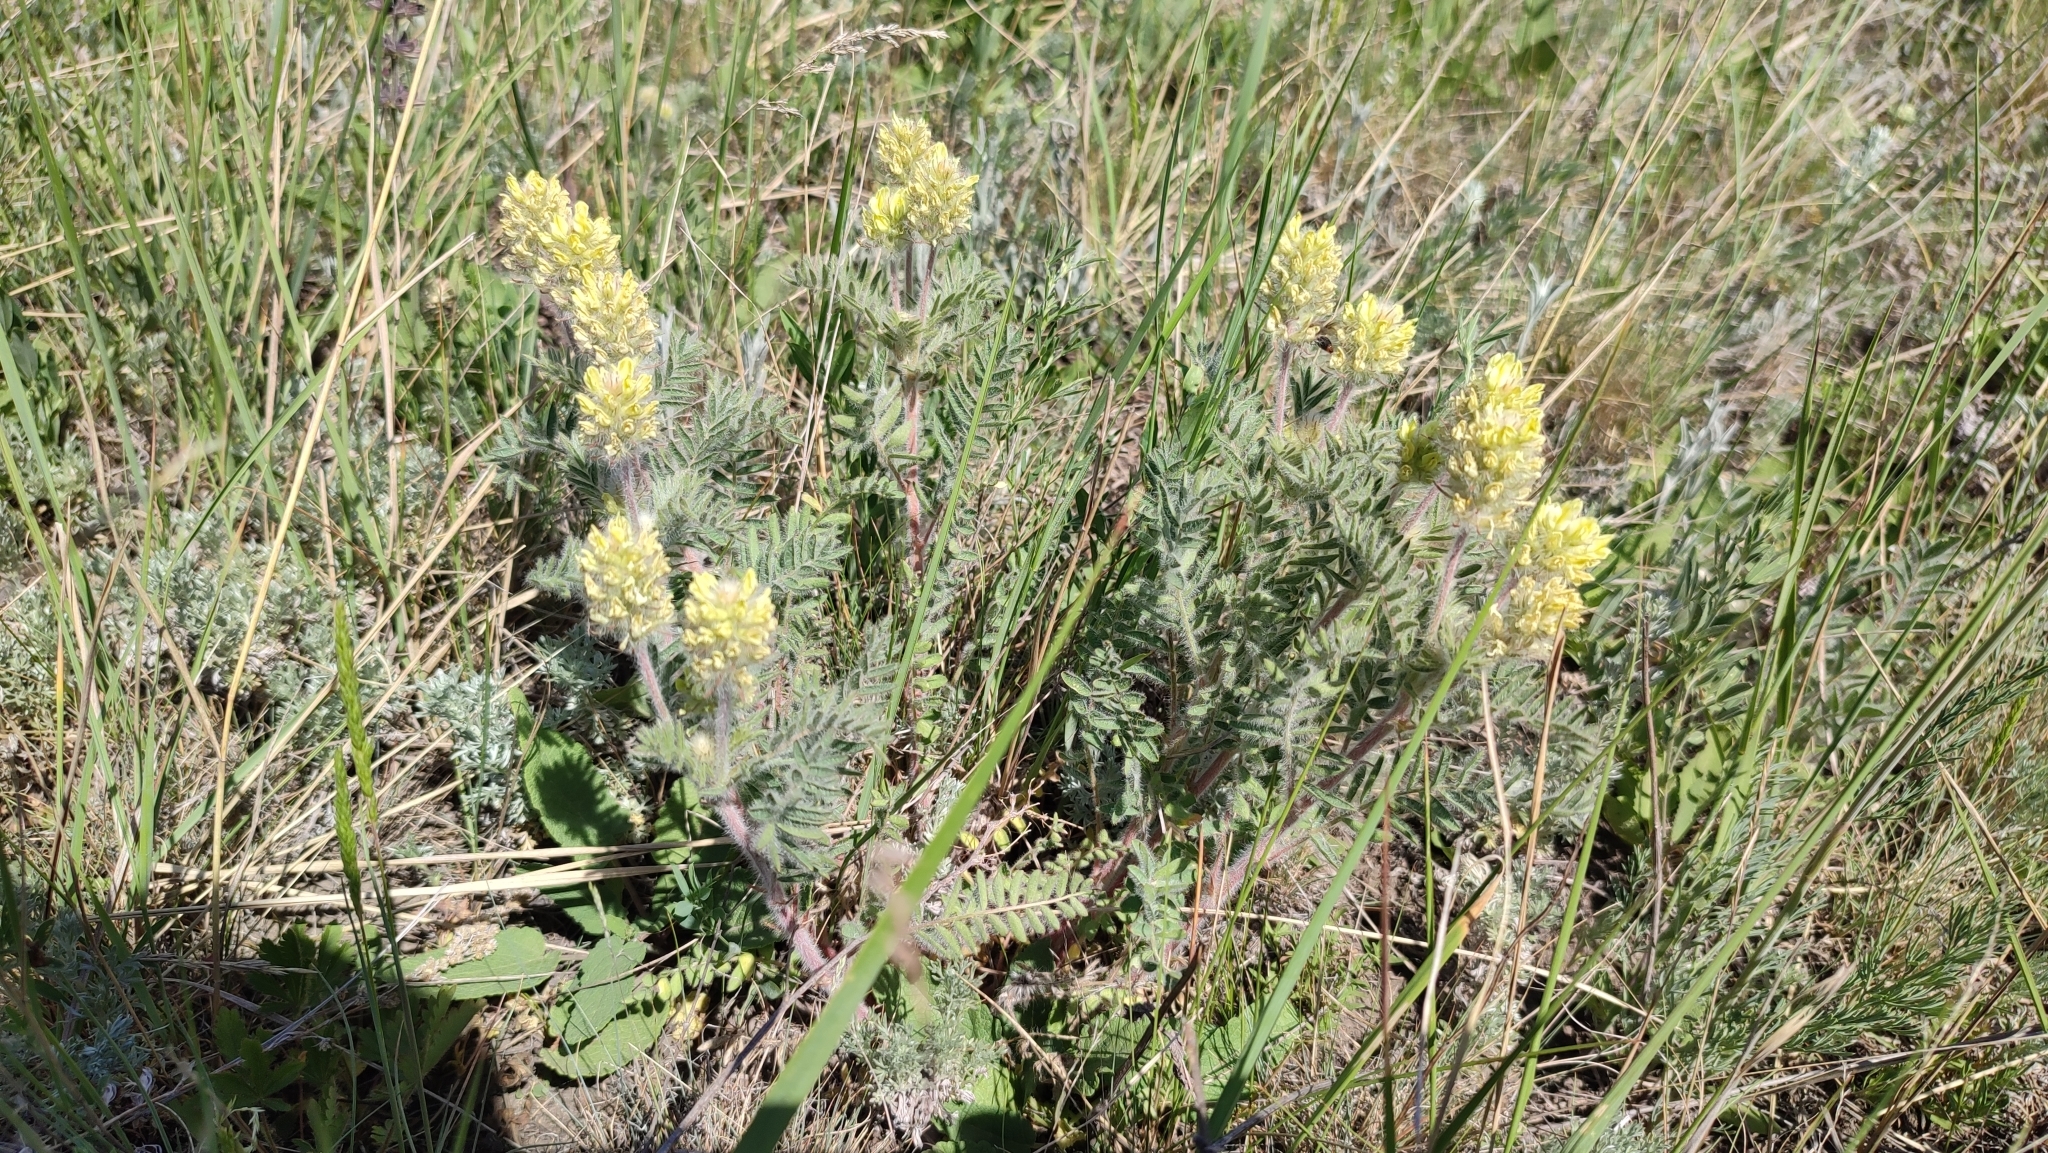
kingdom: Plantae
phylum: Tracheophyta
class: Magnoliopsida
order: Fabales
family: Fabaceae
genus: Oxytropis
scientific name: Oxytropis pilosa
